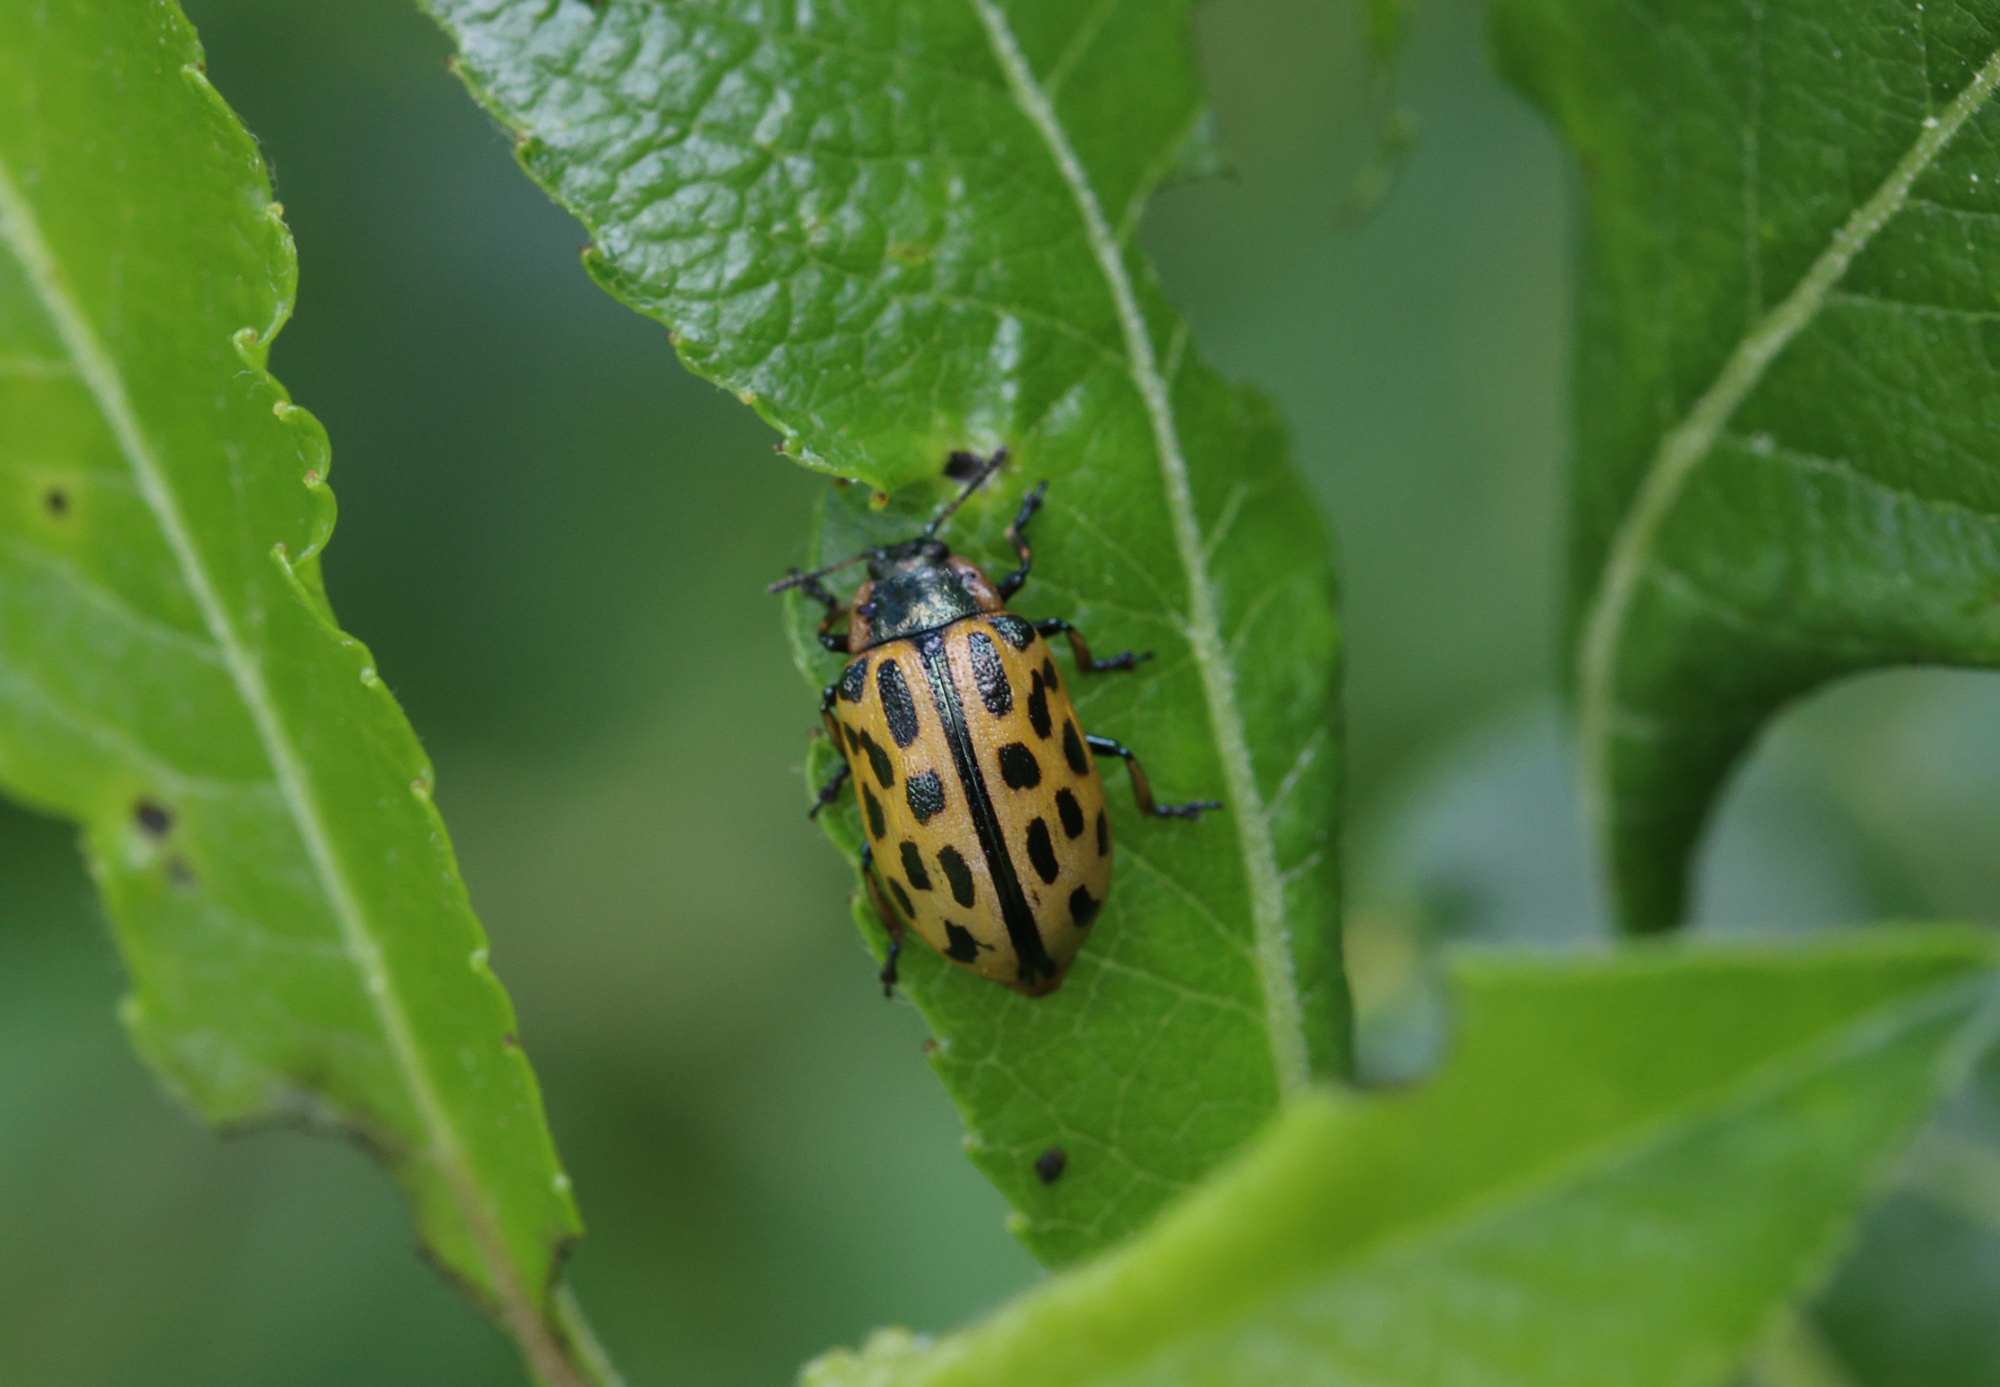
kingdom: Animalia
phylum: Arthropoda
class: Insecta
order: Coleoptera
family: Chrysomelidae
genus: Chrysomela
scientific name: Chrysomela vigintipunctata
